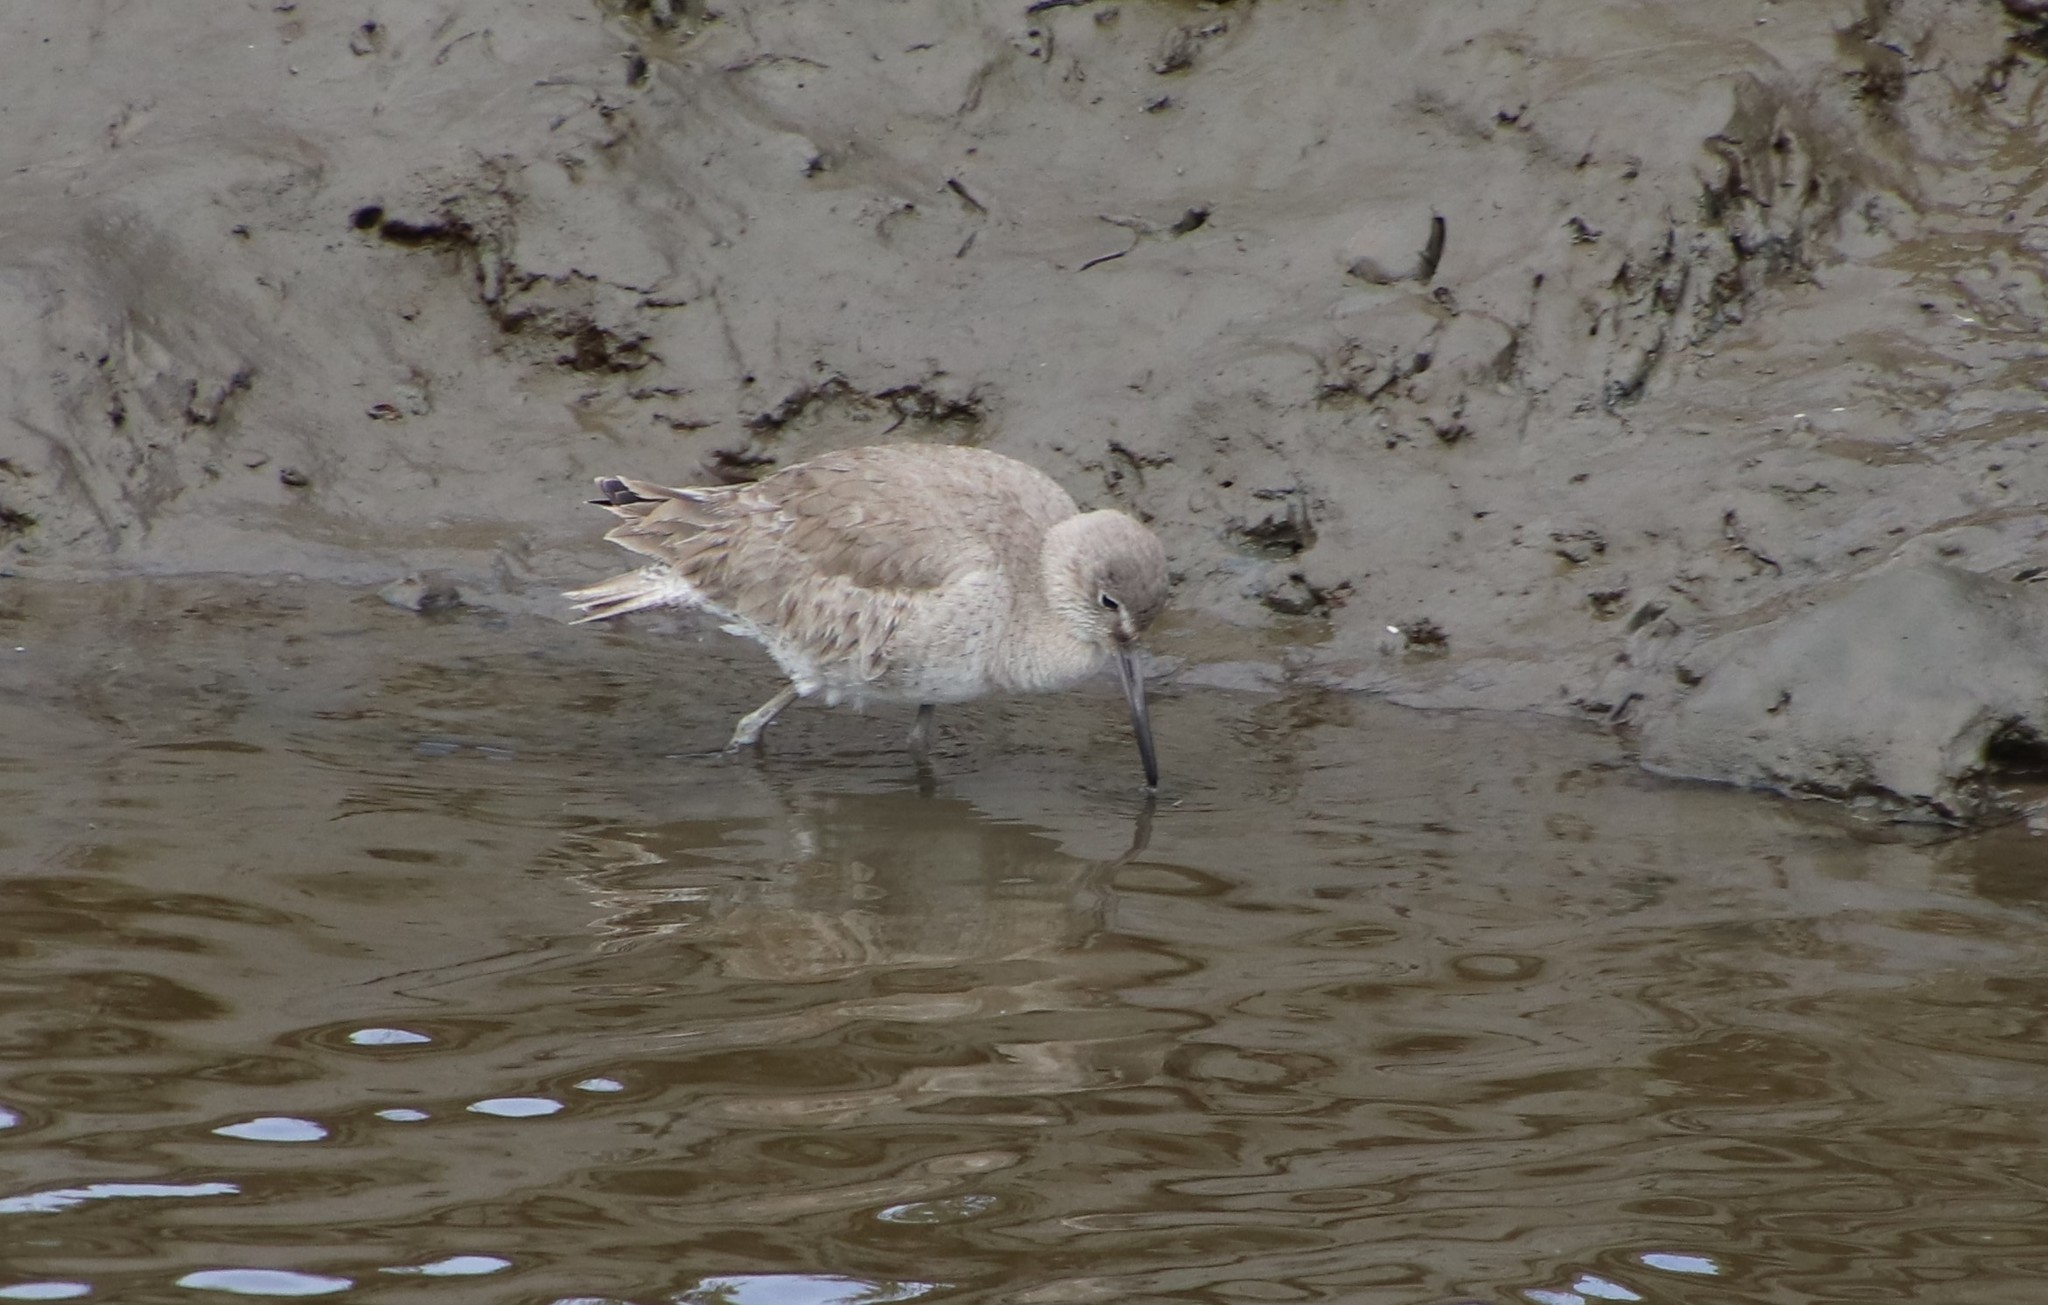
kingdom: Animalia
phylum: Chordata
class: Aves
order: Charadriiformes
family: Scolopacidae
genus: Tringa
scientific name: Tringa semipalmata
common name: Willet
